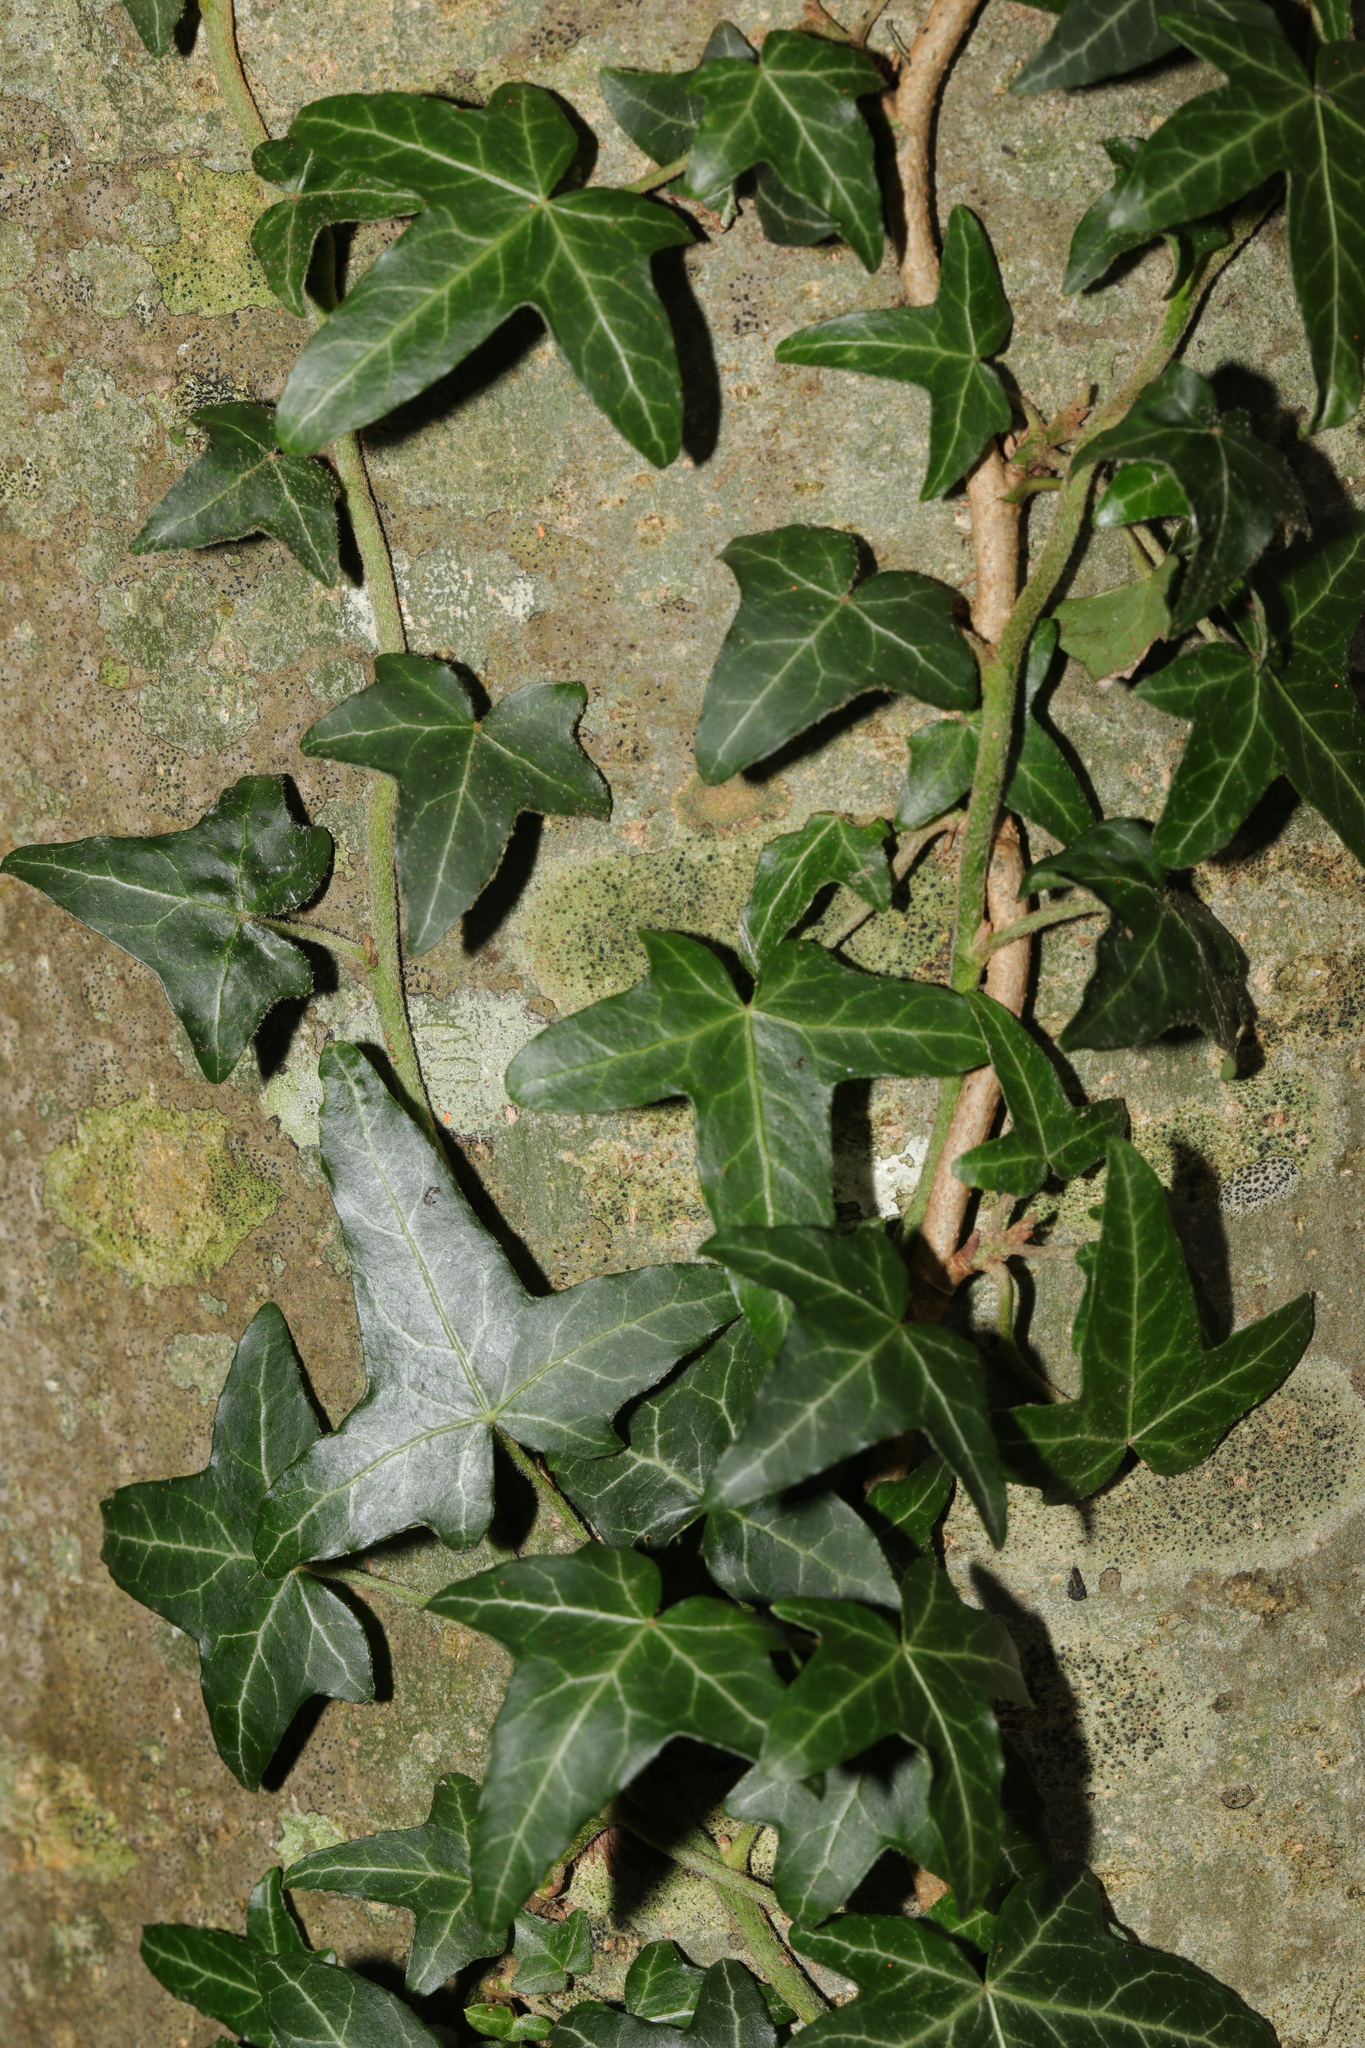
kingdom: Plantae
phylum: Tracheophyta
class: Magnoliopsida
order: Apiales
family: Araliaceae
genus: Hedera
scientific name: Hedera helix
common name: Ivy
